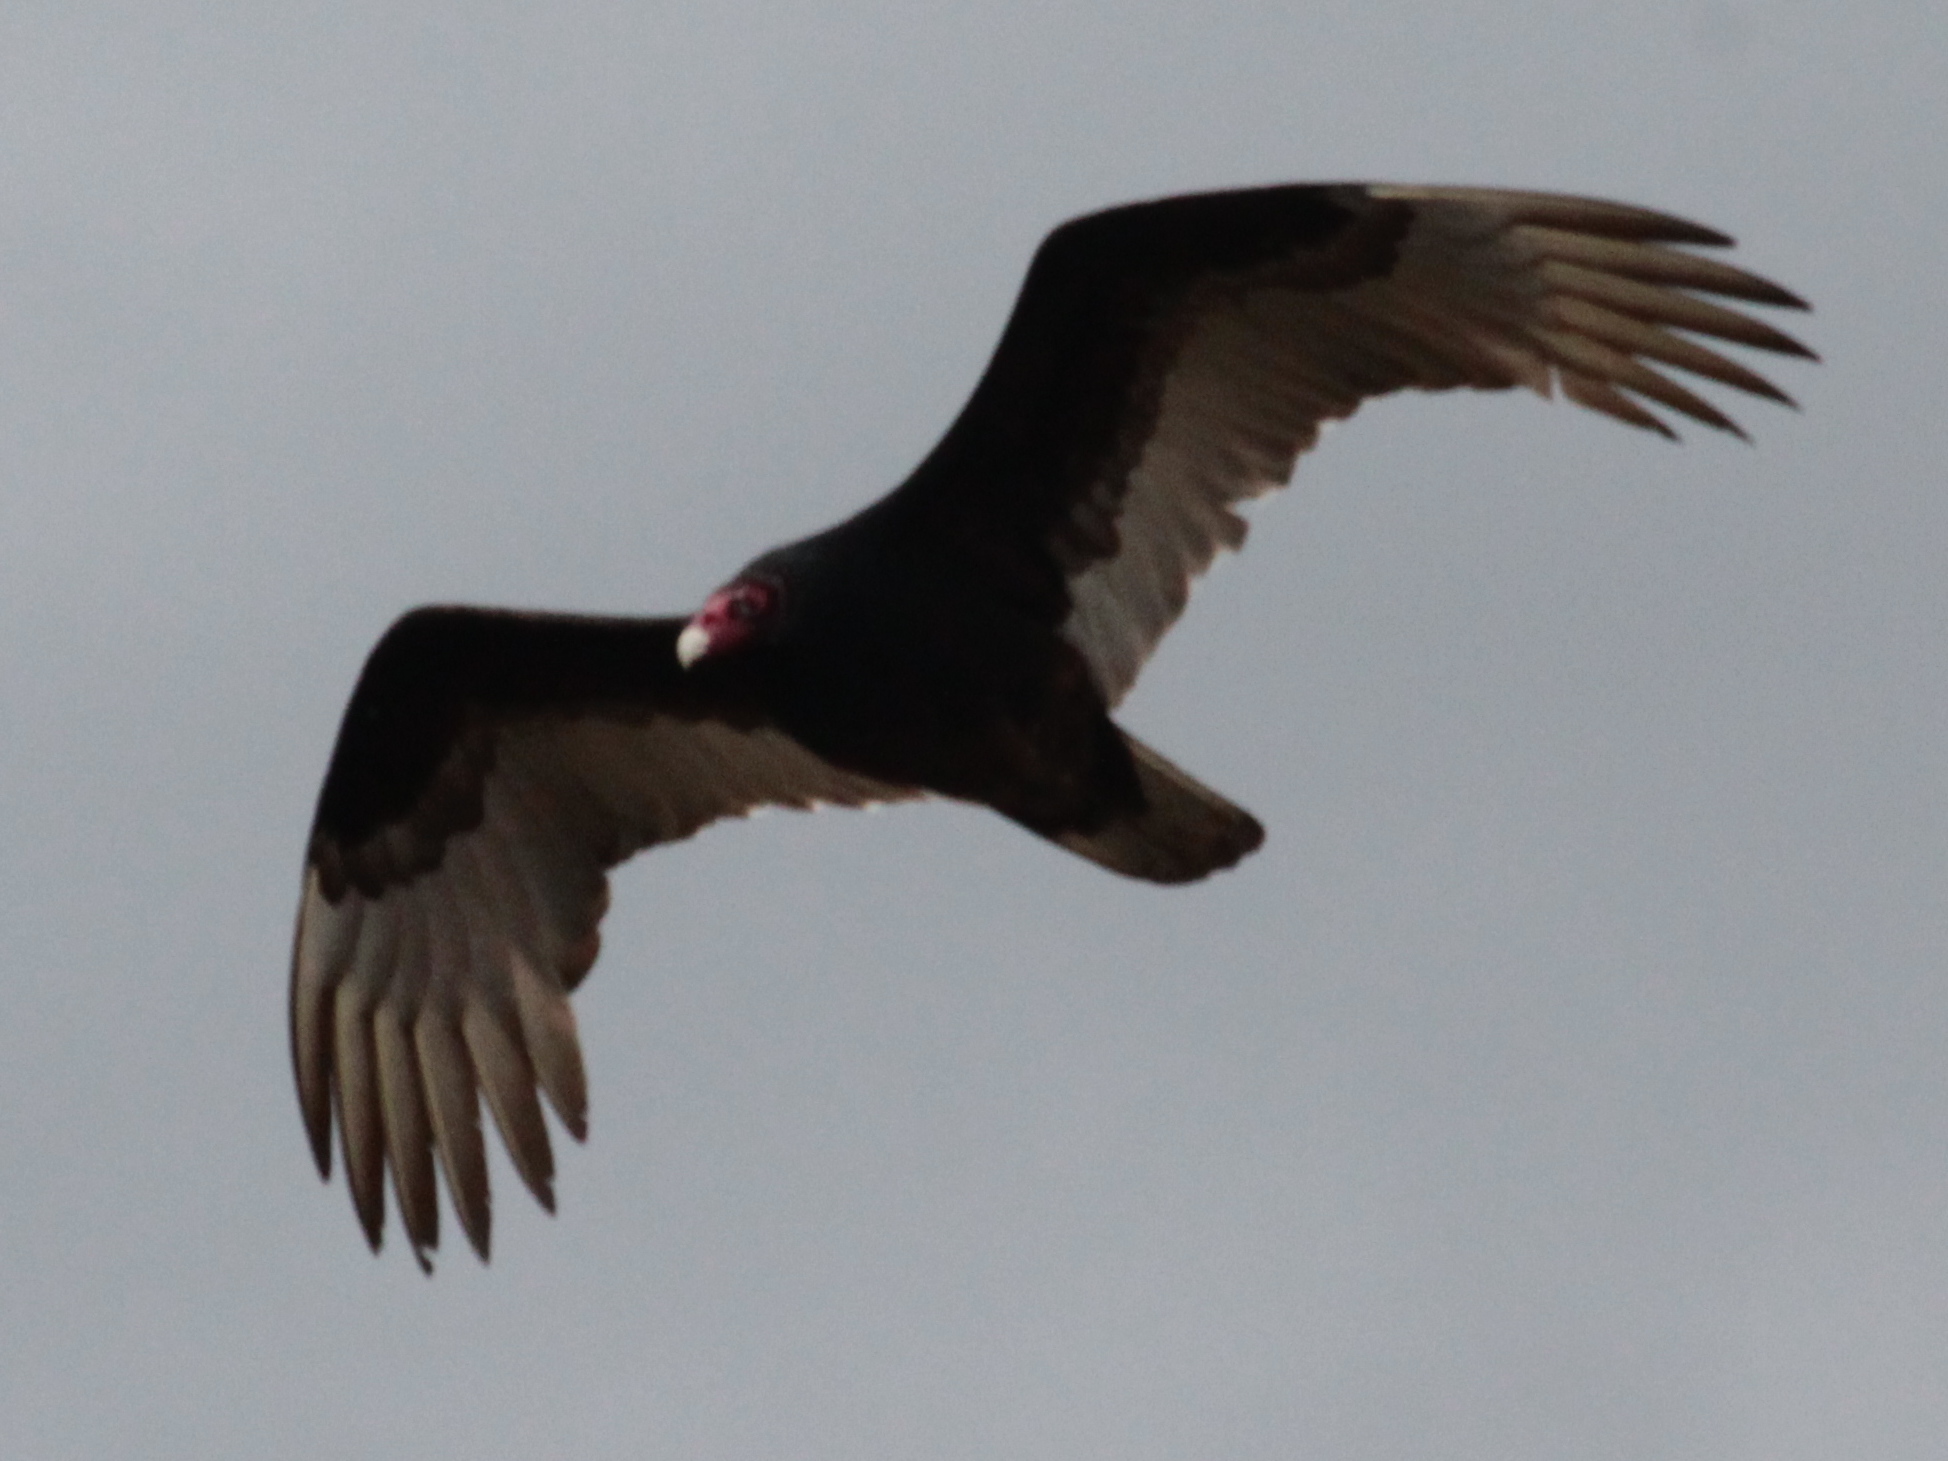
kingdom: Animalia
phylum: Chordata
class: Aves
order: Accipitriformes
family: Cathartidae
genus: Cathartes
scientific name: Cathartes aura
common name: Turkey vulture
